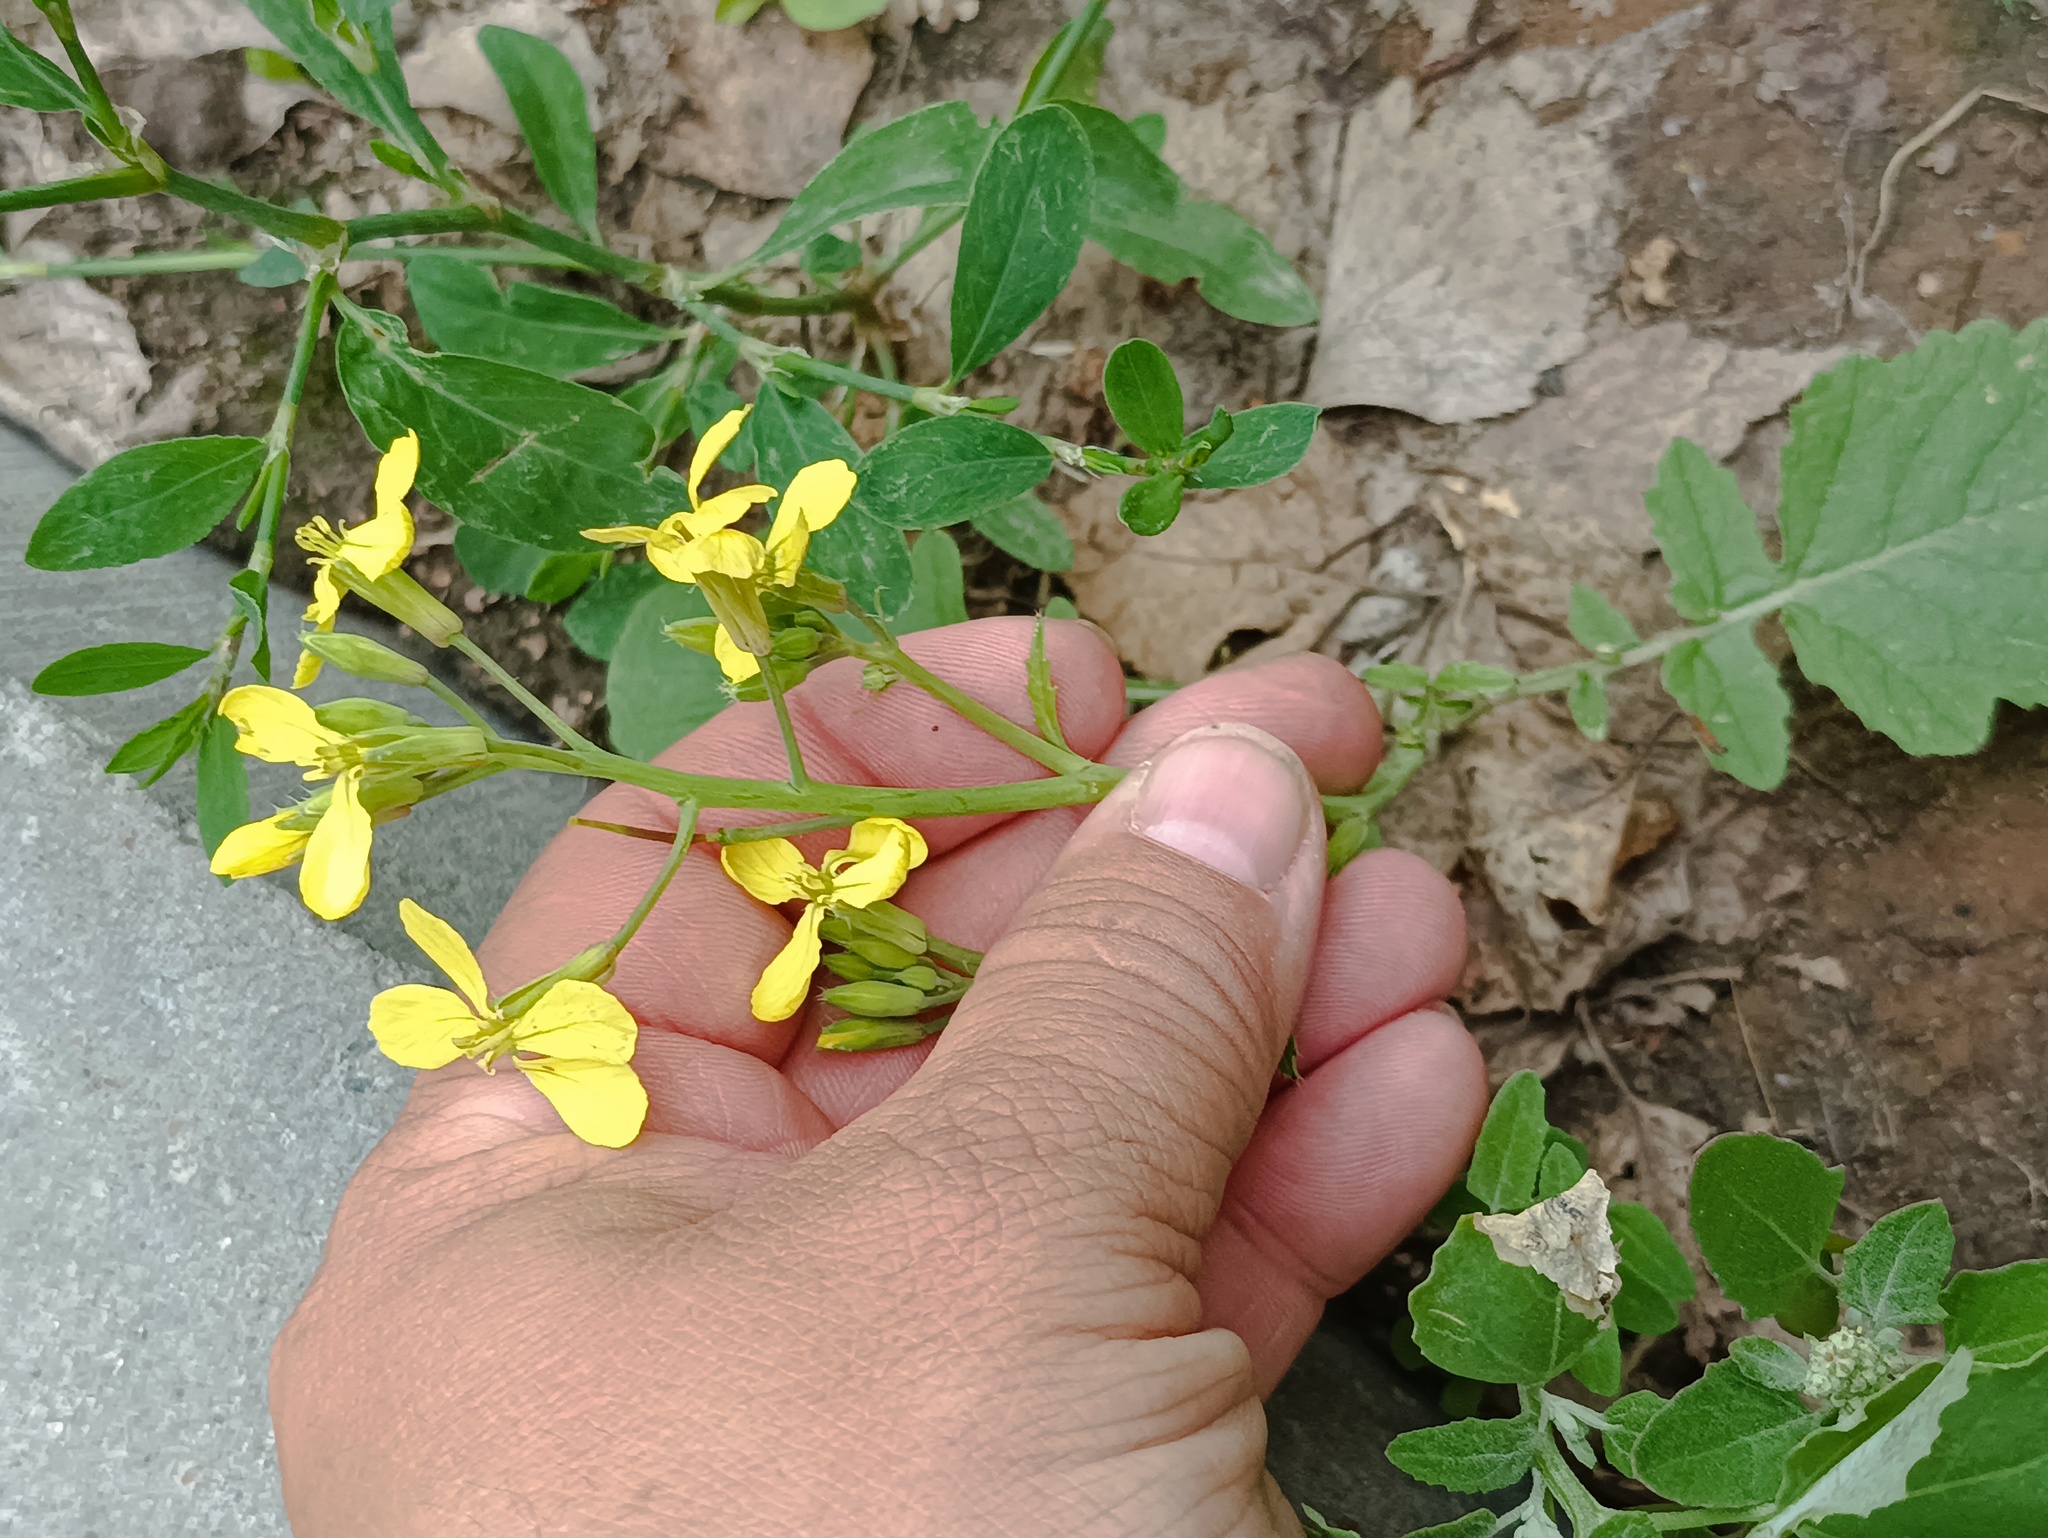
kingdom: Plantae
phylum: Tracheophyta
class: Magnoliopsida
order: Brassicales
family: Brassicaceae
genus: Raphanus
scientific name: Raphanus raphanistrum
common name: Wild radish
